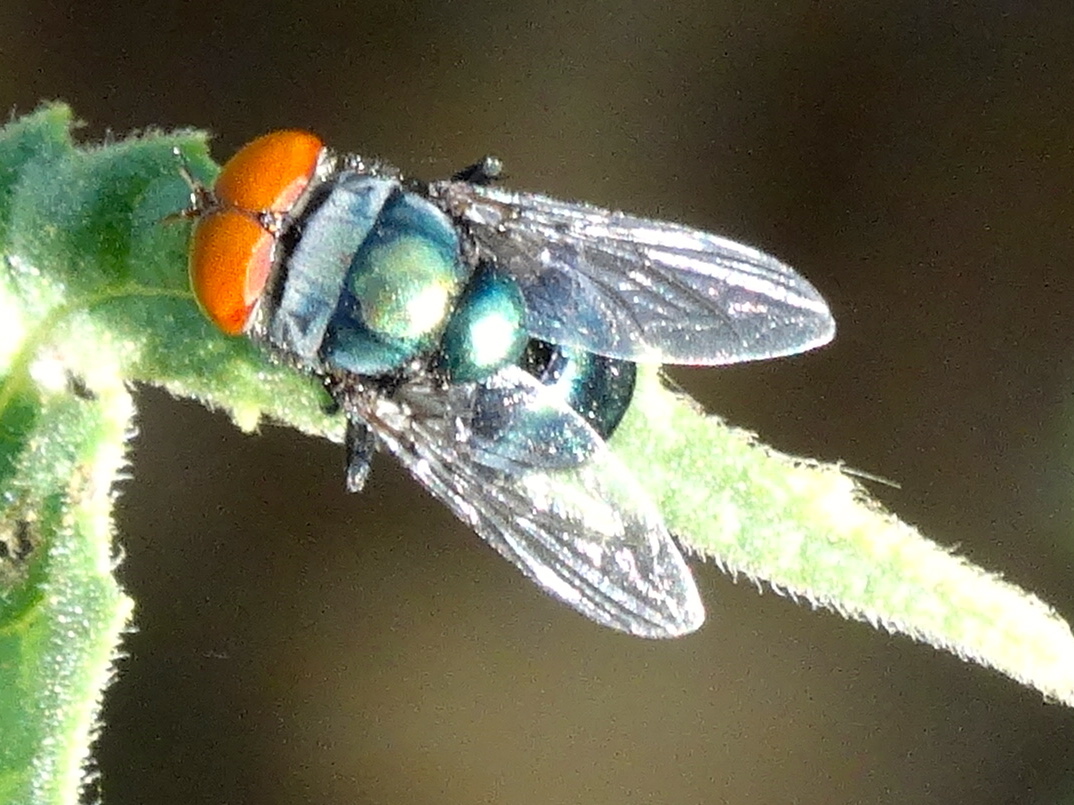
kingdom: Animalia
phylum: Arthropoda
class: Insecta
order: Diptera
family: Calliphoridae
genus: Chrysomya
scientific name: Chrysomya megacephala
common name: Blow fly
